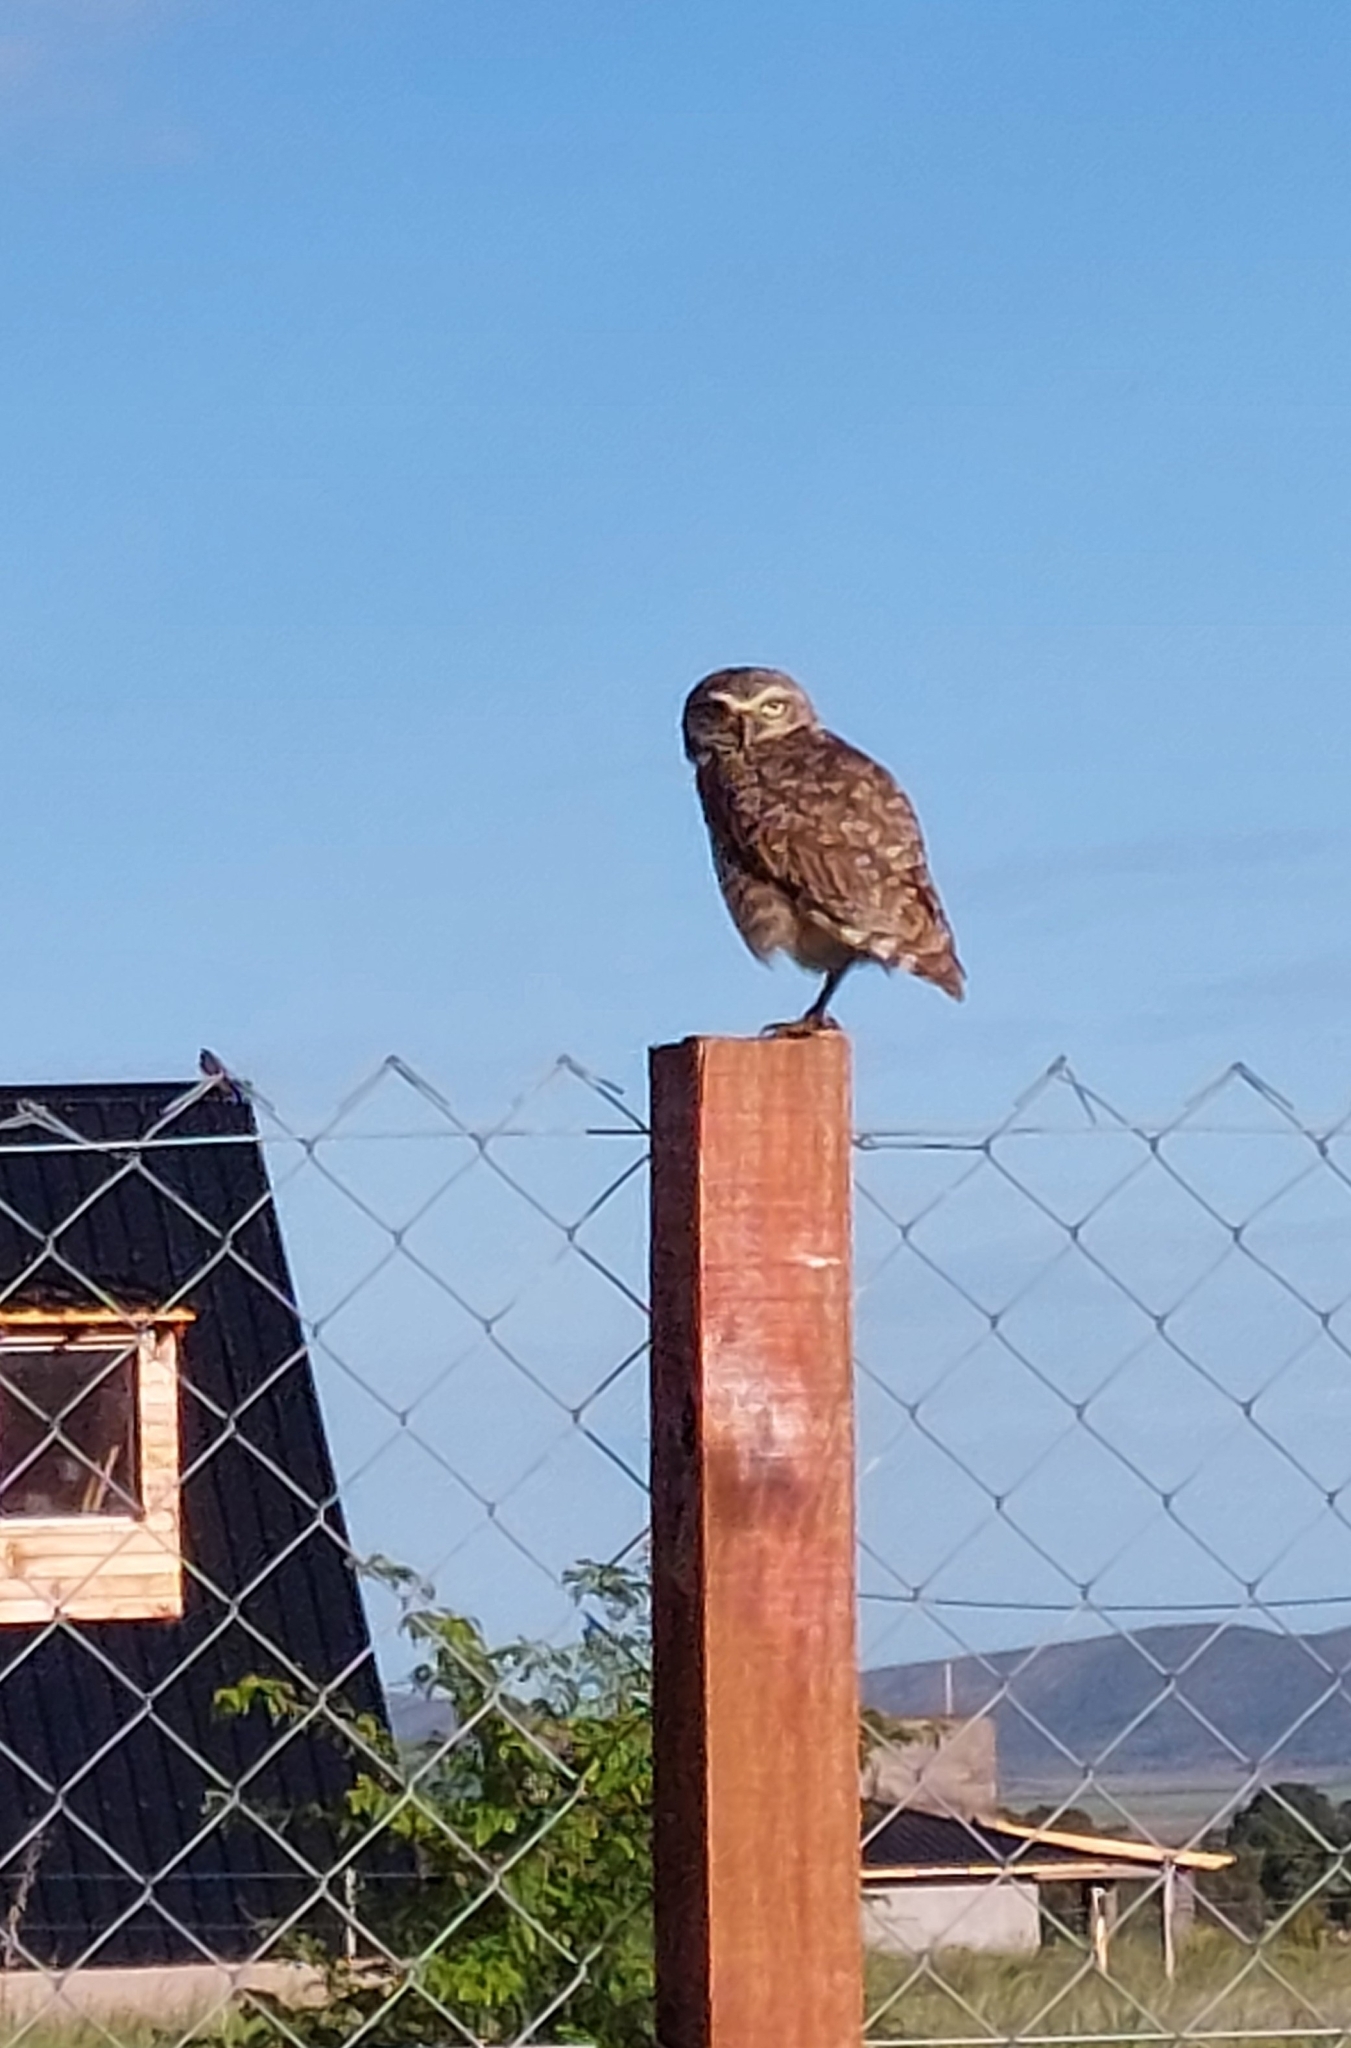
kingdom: Animalia
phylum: Chordata
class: Aves
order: Strigiformes
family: Strigidae
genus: Athene
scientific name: Athene cunicularia
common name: Burrowing owl
